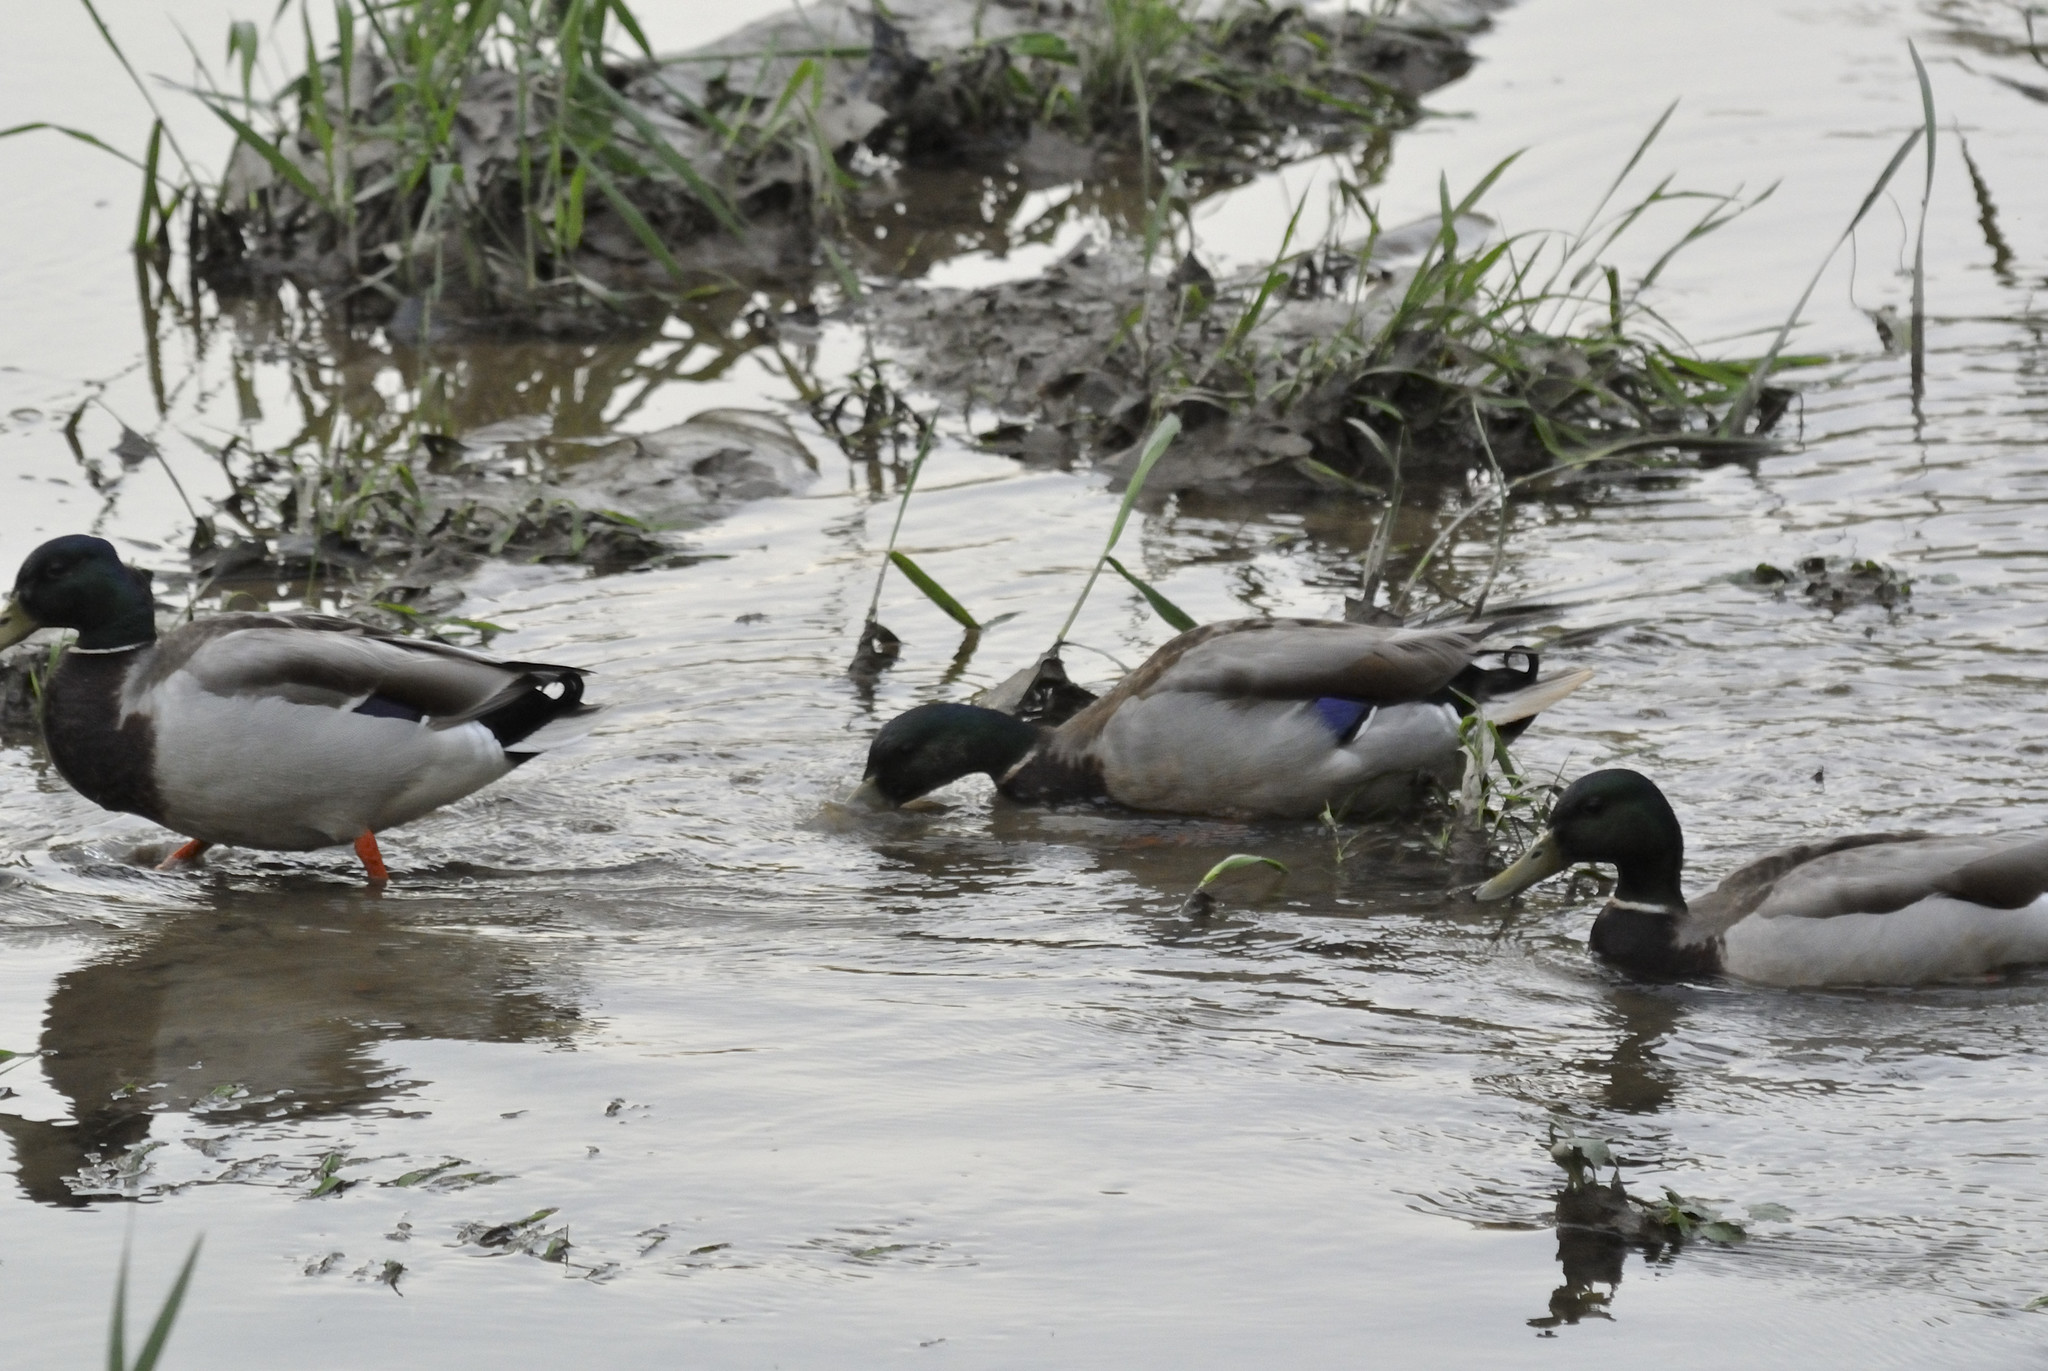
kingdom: Animalia
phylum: Chordata
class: Aves
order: Anseriformes
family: Anatidae
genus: Anas
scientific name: Anas platyrhynchos
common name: Mallard
